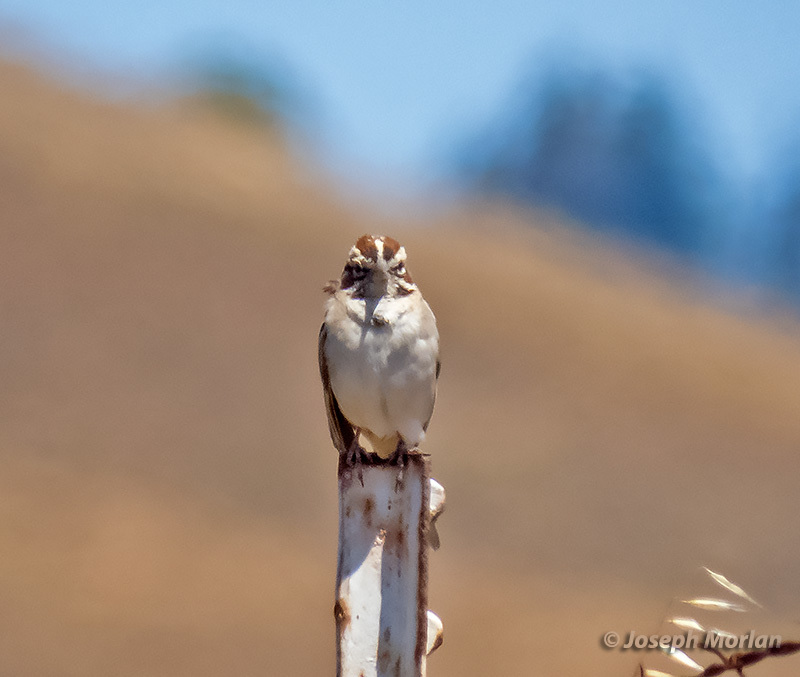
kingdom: Animalia
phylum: Chordata
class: Aves
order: Passeriformes
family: Passerellidae
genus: Chondestes
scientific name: Chondestes grammacus
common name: Lark sparrow
